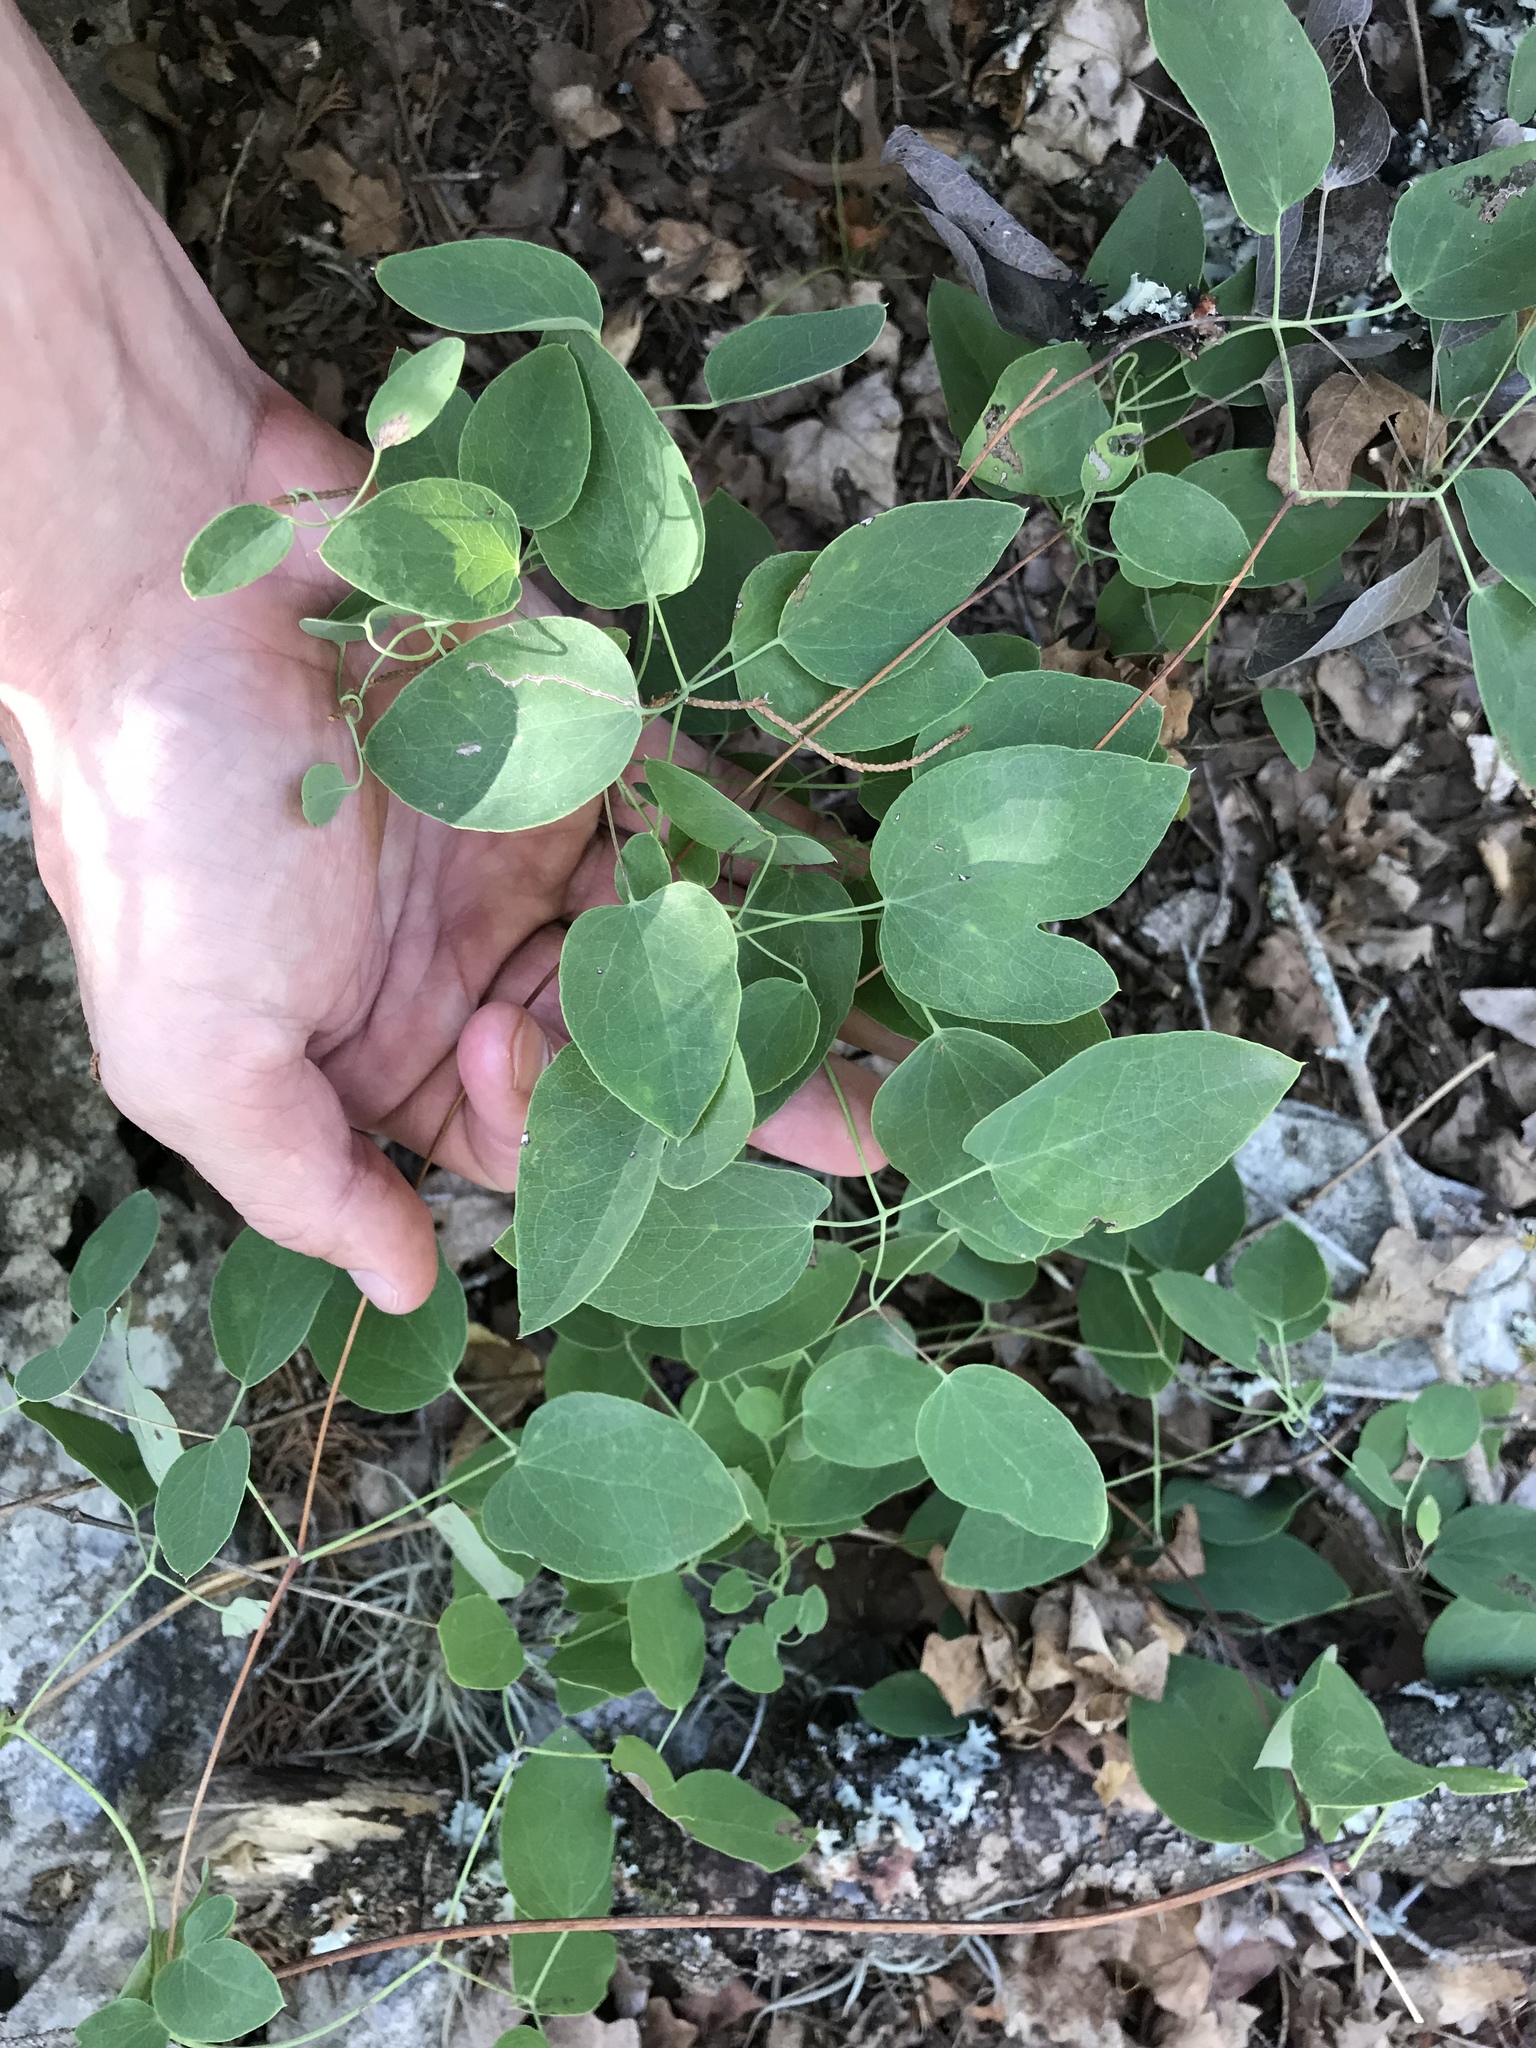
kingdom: Plantae
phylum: Tracheophyta
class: Magnoliopsida
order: Ranunculales
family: Ranunculaceae
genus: Clematis
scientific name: Clematis texensis
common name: Crimson clematis
